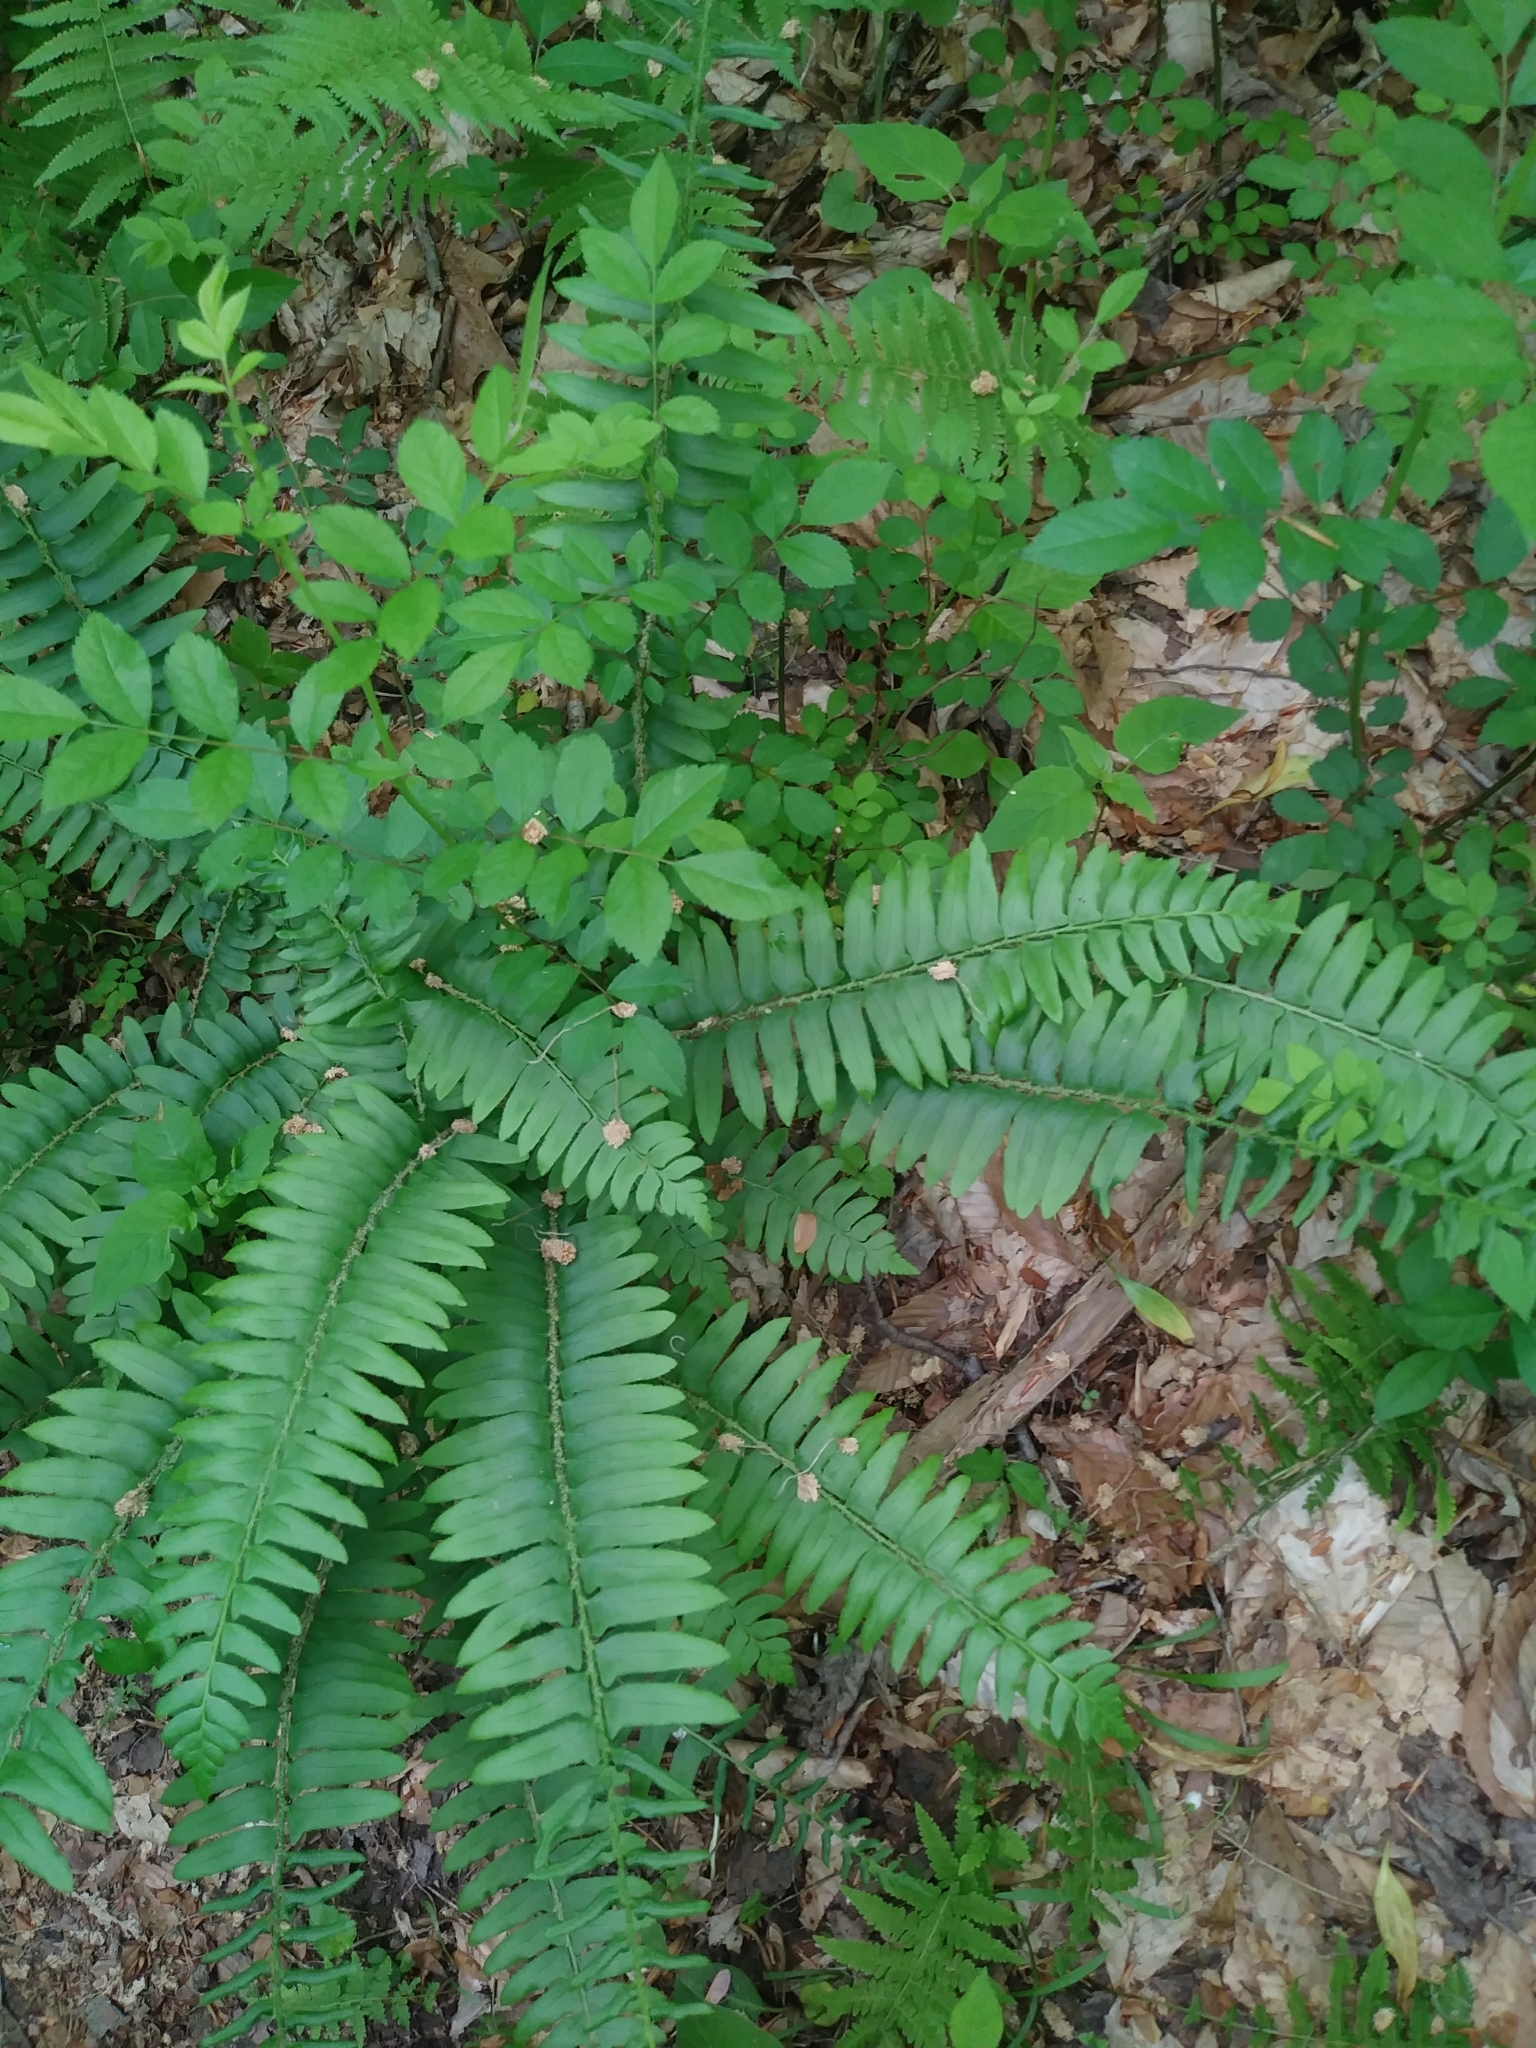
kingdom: Plantae
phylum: Tracheophyta
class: Polypodiopsida
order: Polypodiales
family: Dryopteridaceae
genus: Polystichum
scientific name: Polystichum acrostichoides
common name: Christmas fern
